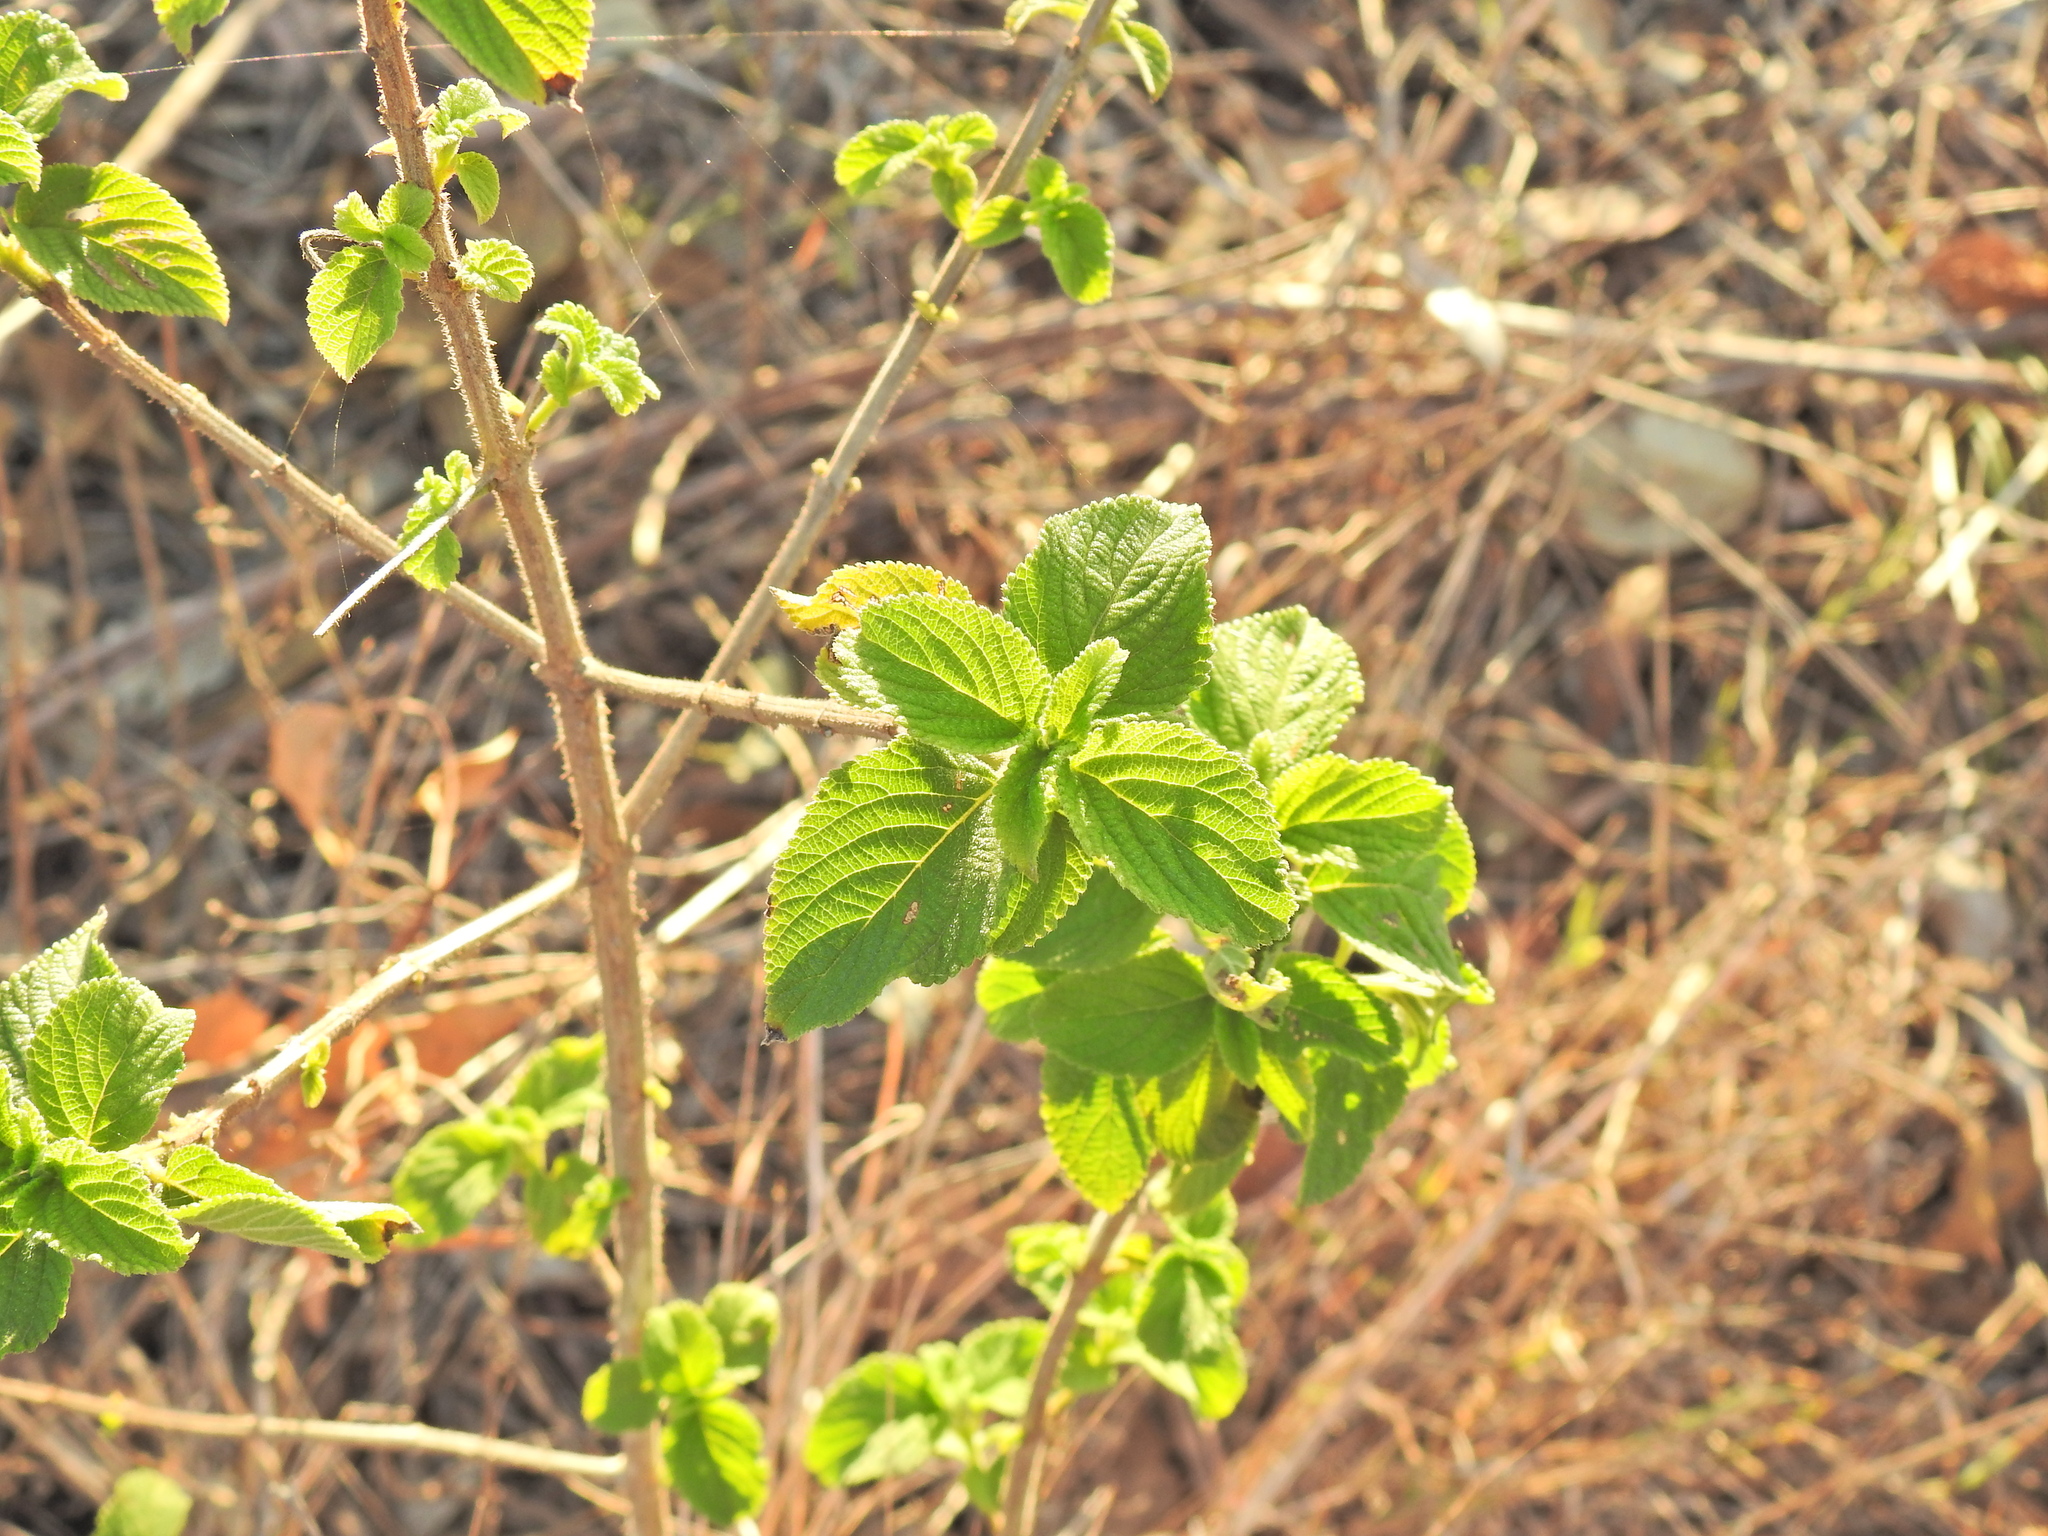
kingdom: Plantae
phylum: Tracheophyta
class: Magnoliopsida
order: Lamiales
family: Verbenaceae
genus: Lantana
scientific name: Lantana camara
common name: Lantana
